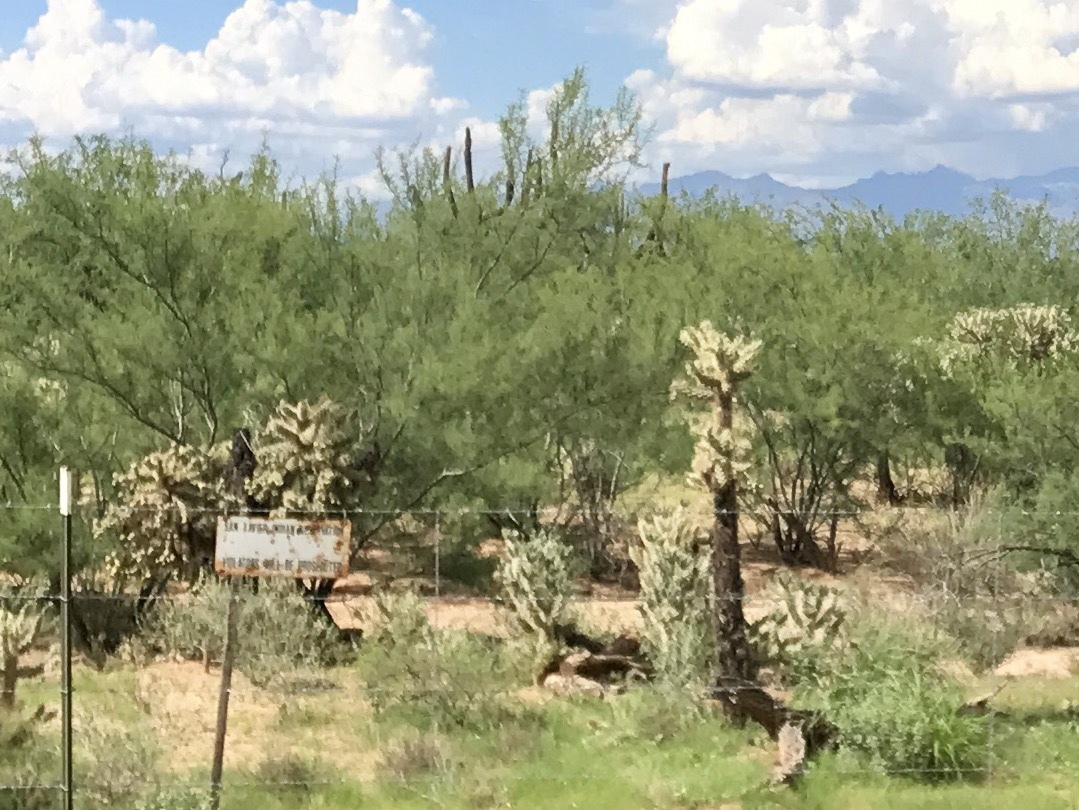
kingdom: Plantae
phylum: Tracheophyta
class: Magnoliopsida
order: Caryophyllales
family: Cactaceae
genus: Cylindropuntia
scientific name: Cylindropuntia fulgida
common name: Jumping cholla
